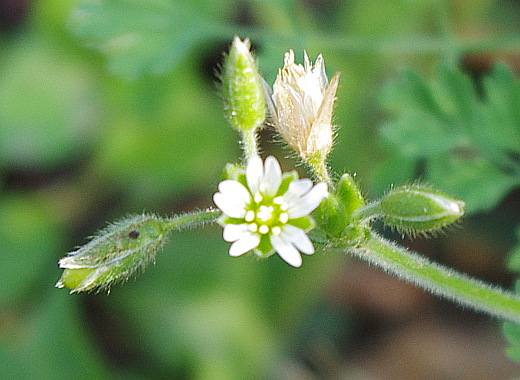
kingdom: Plantae
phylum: Tracheophyta
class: Magnoliopsida
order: Caryophyllales
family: Caryophyllaceae
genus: Cerastium
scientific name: Cerastium holosteoides
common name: Big chickweed
